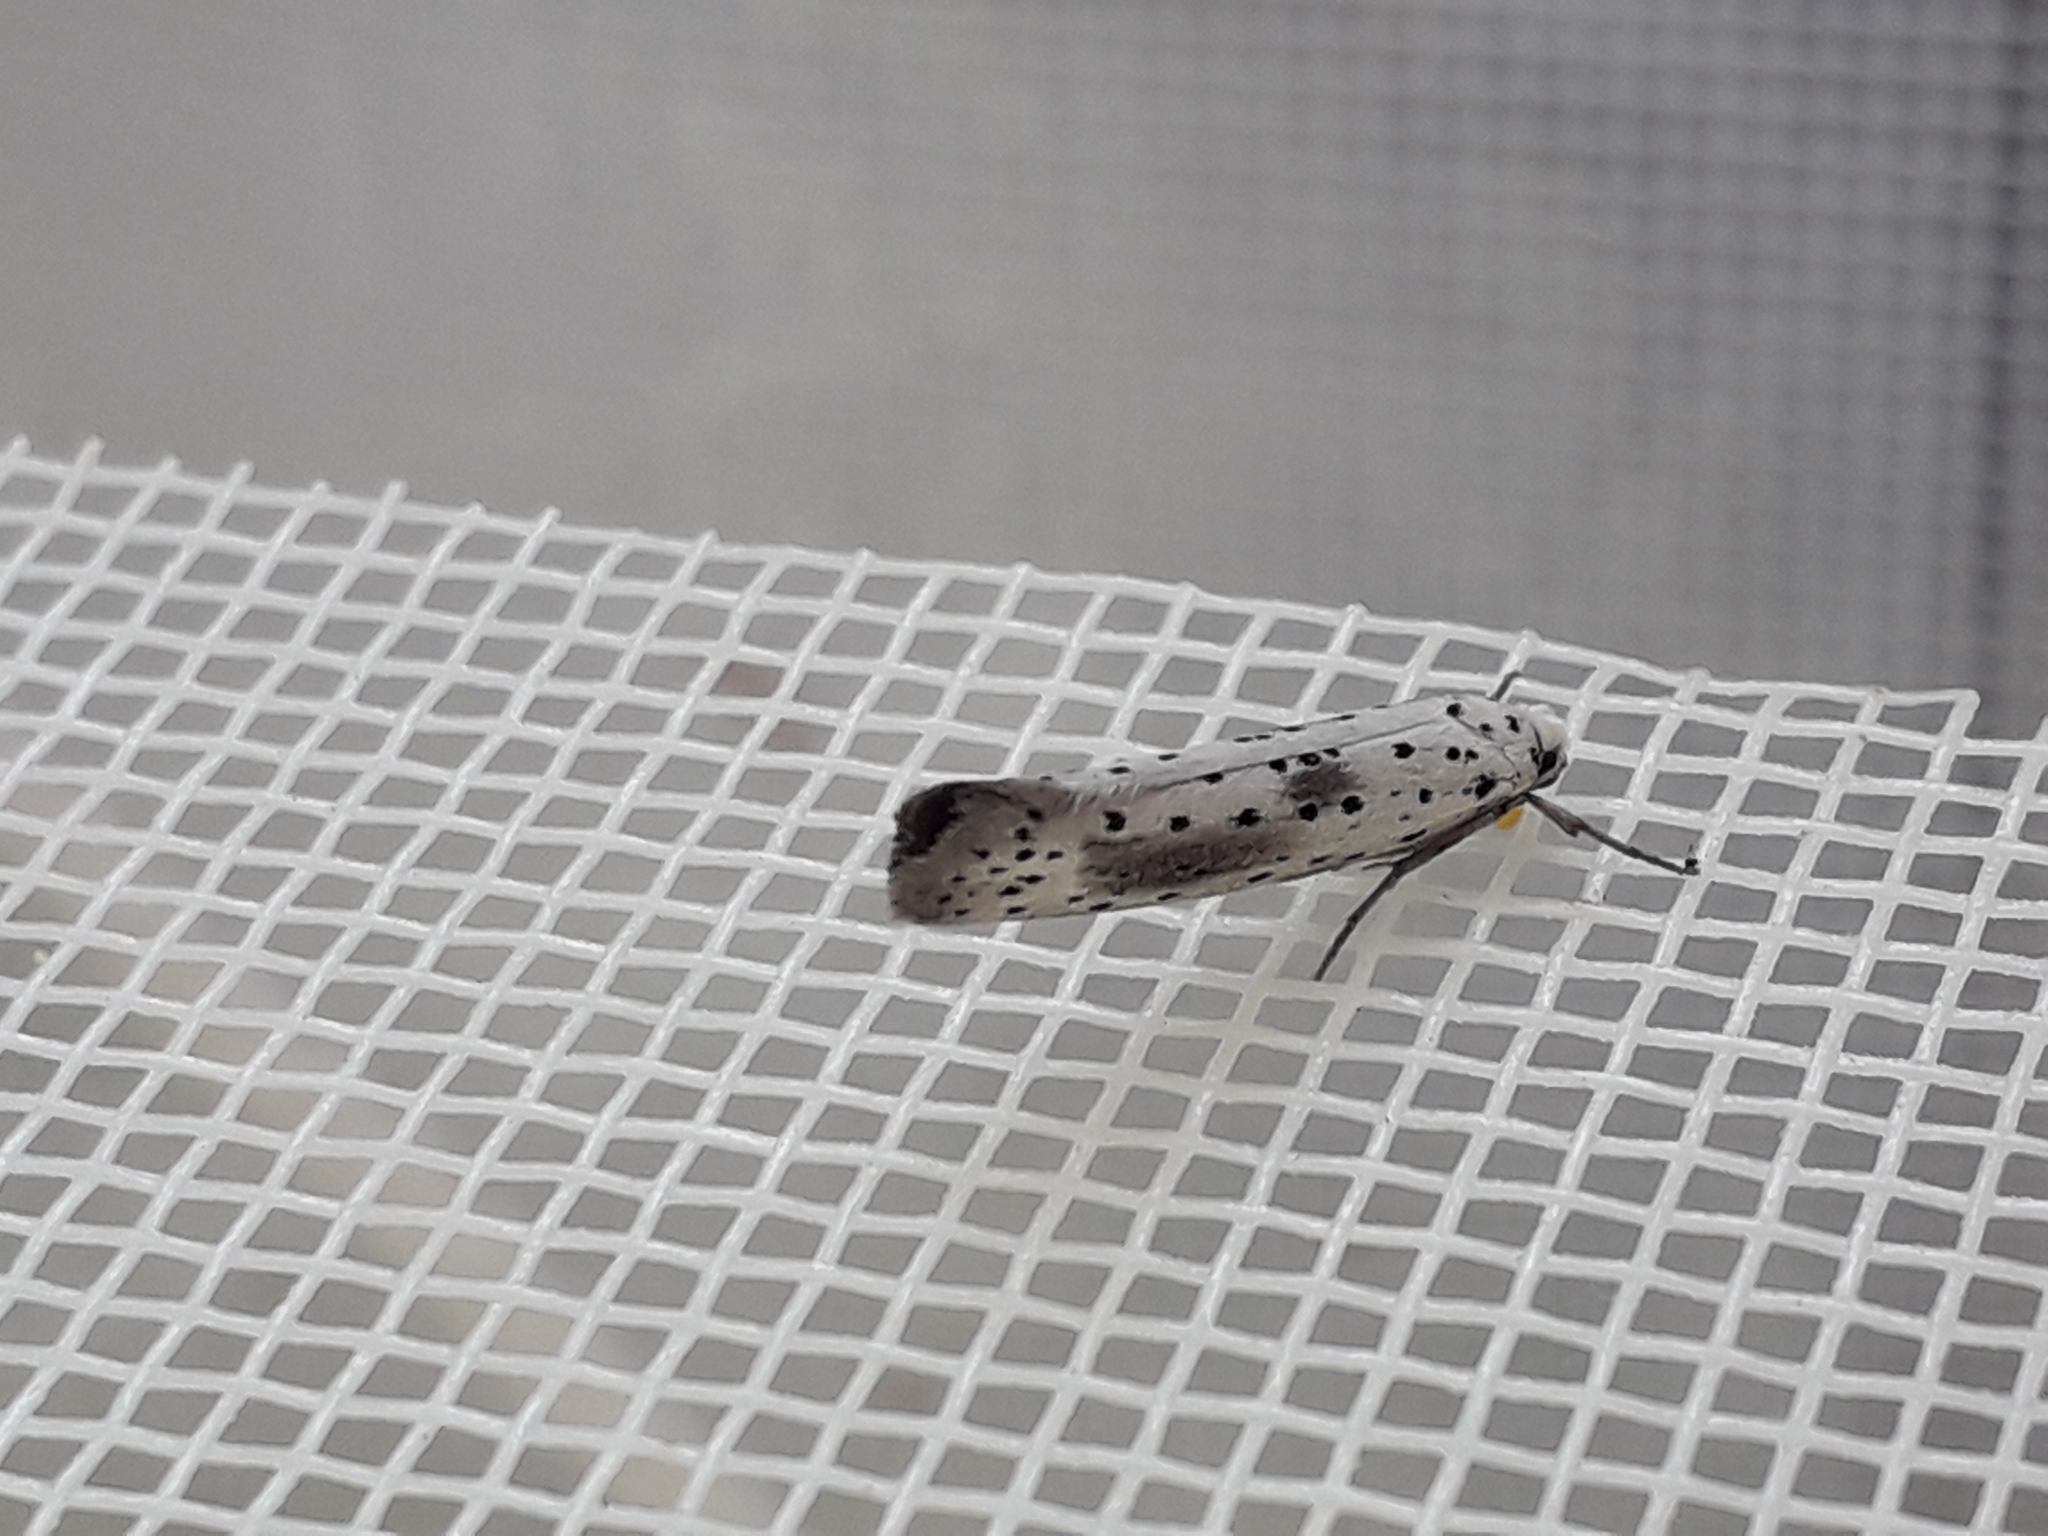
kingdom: Animalia
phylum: Arthropoda
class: Insecta
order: Lepidoptera
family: Yponomeutidae
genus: Yponomeuta
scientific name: Yponomeuta irrorella
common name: Scarce ermine
